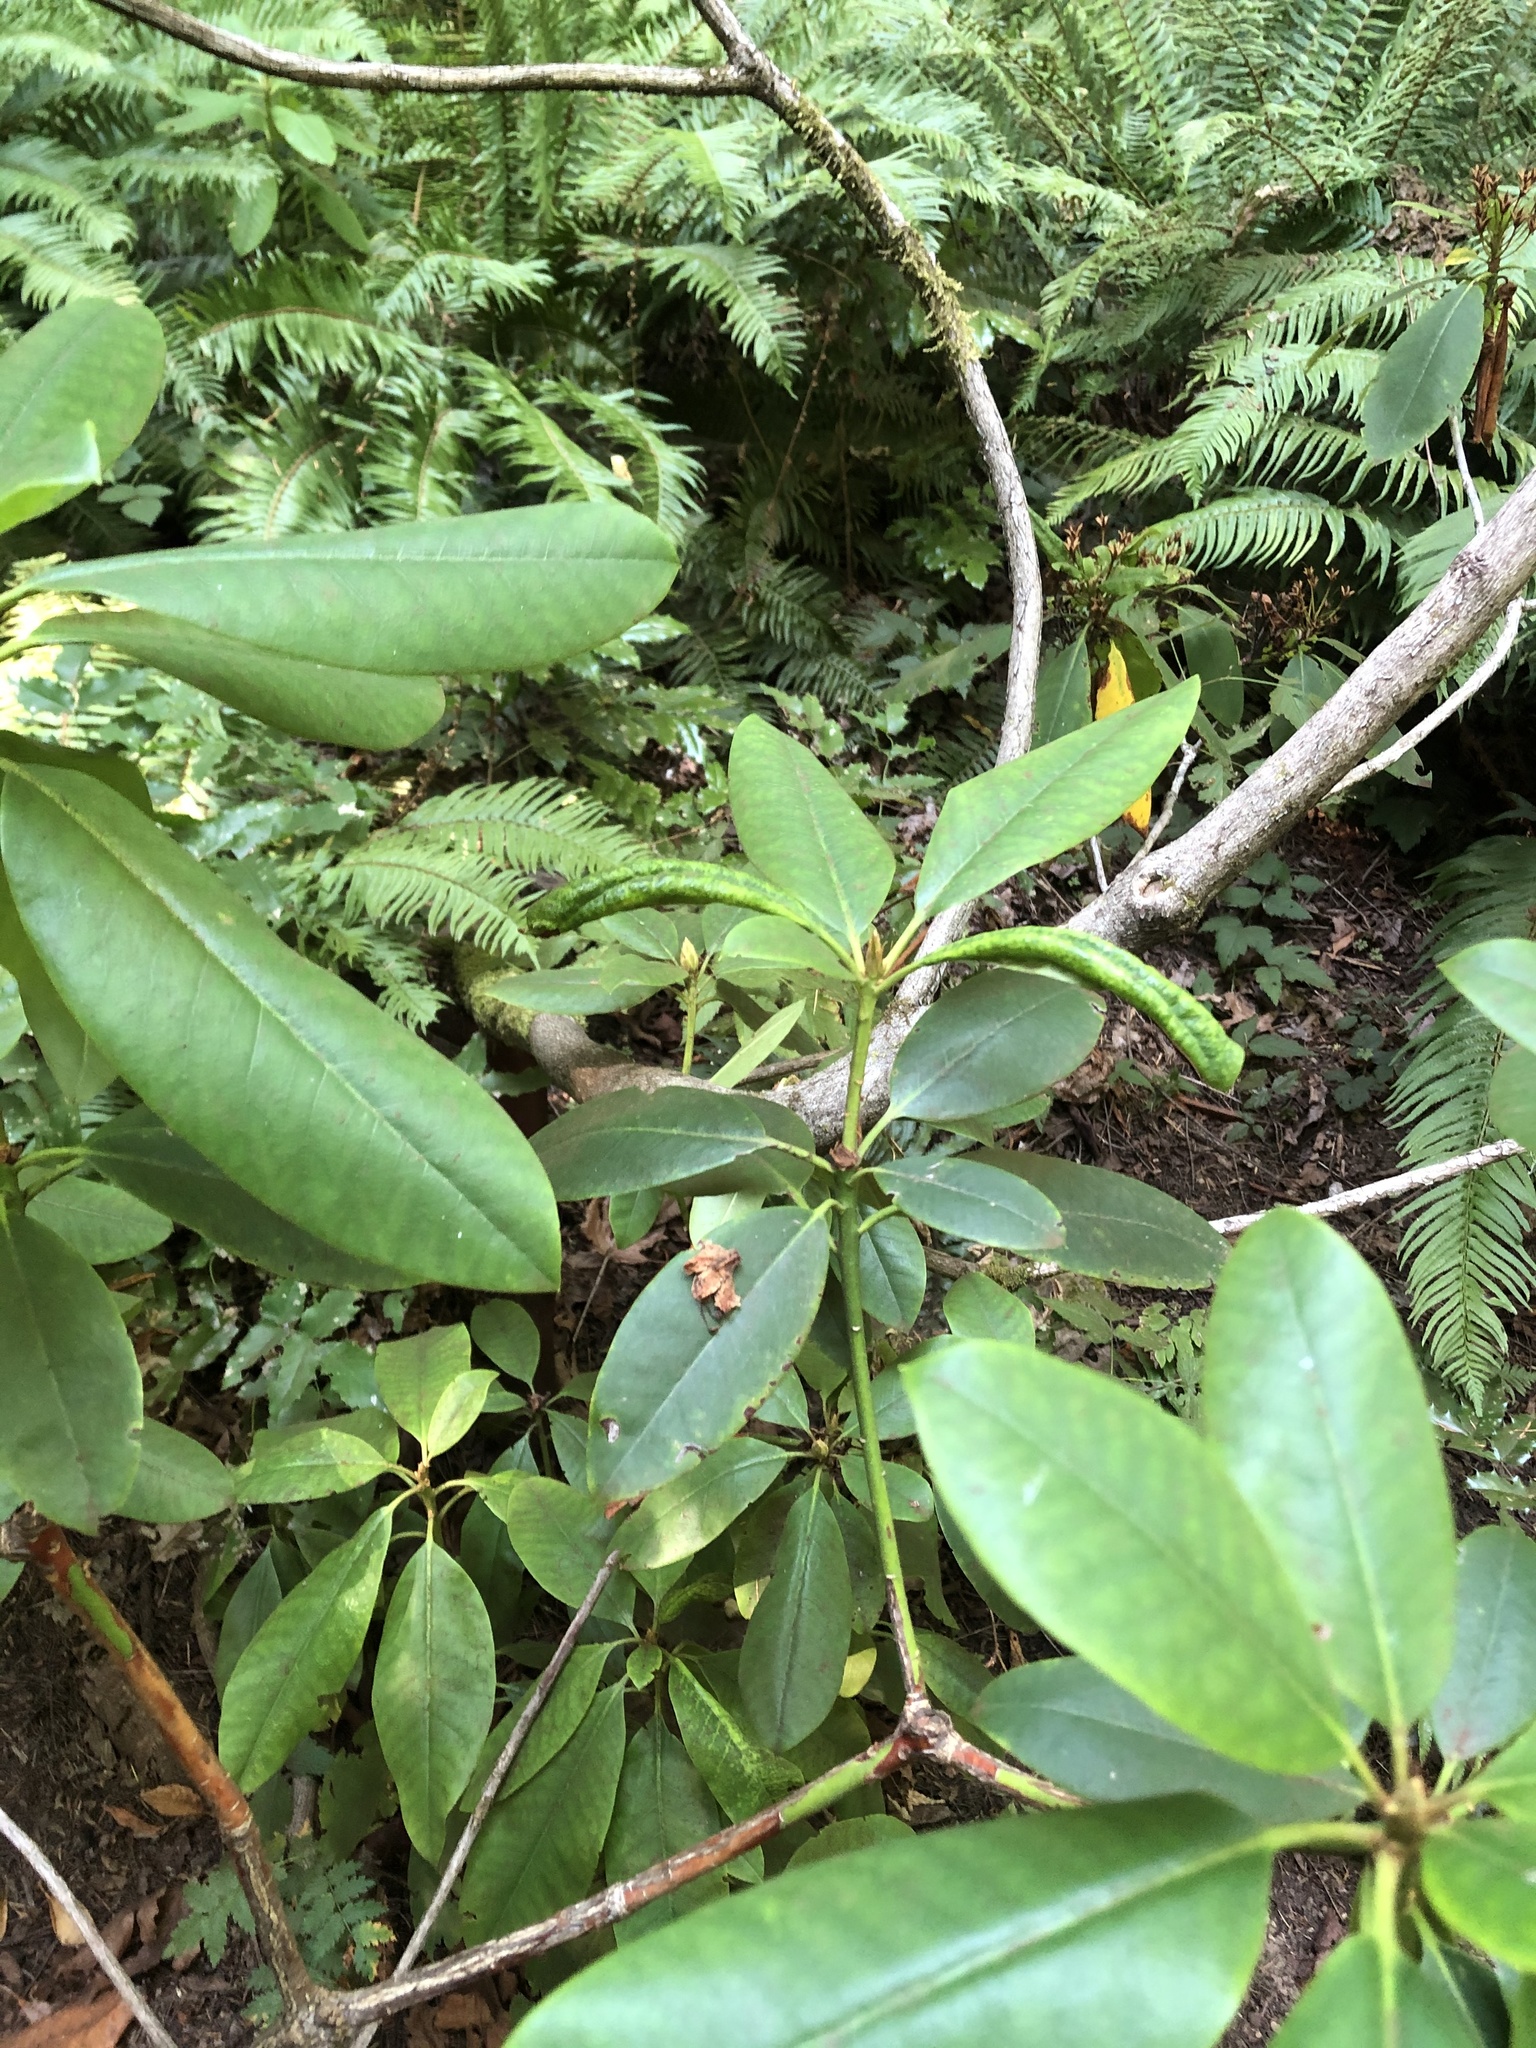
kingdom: Plantae
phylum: Tracheophyta
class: Magnoliopsida
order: Ericales
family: Ericaceae
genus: Rhododendron
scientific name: Rhododendron macrophyllum
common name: California rose bay
